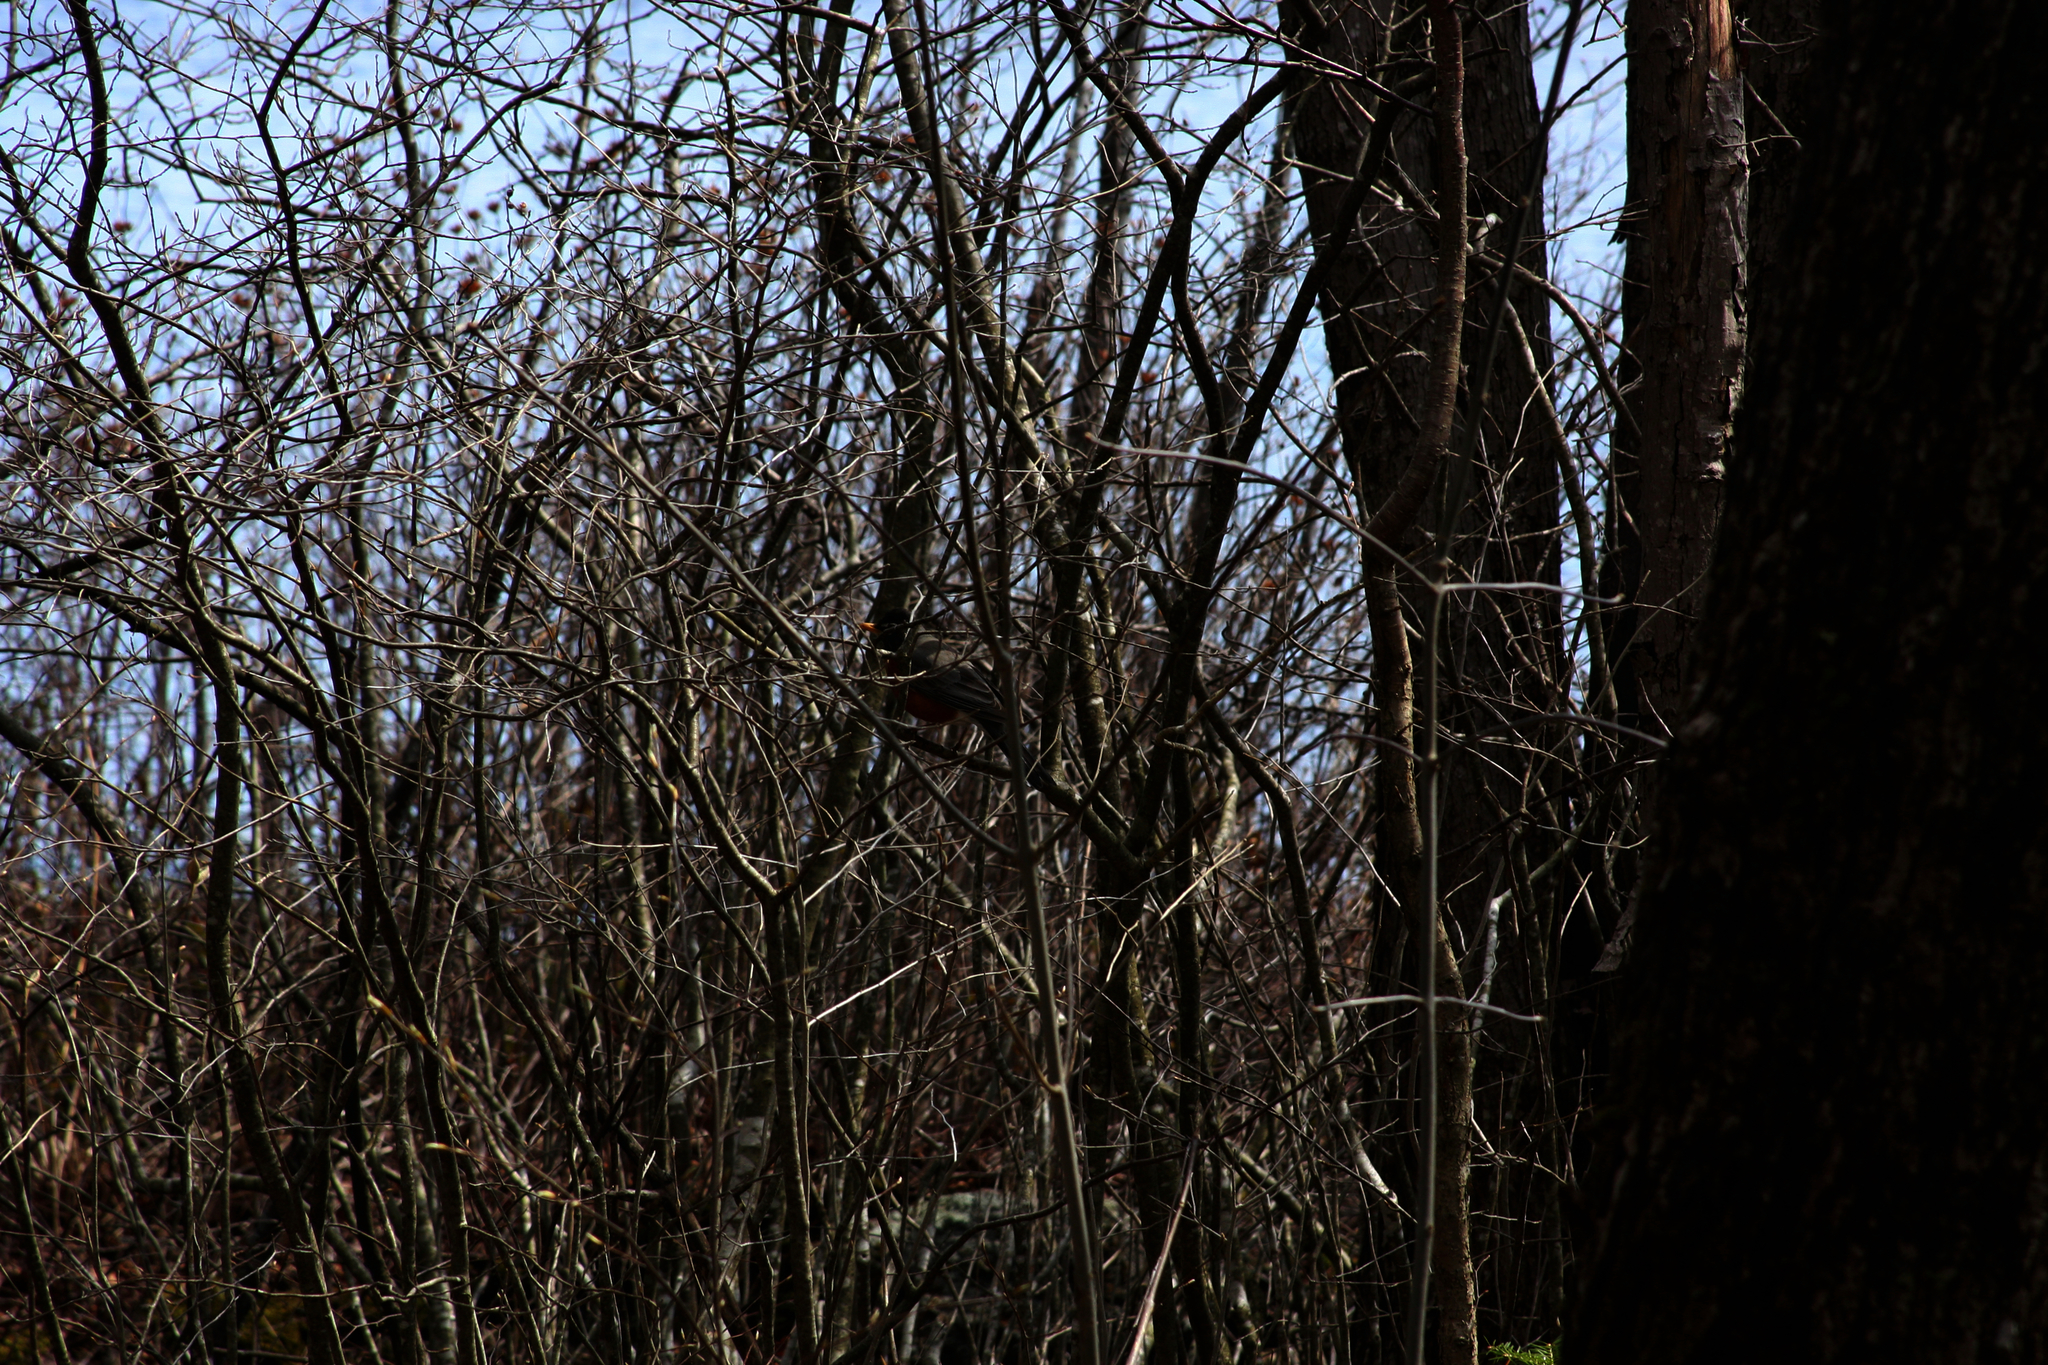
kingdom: Animalia
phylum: Chordata
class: Aves
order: Passeriformes
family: Turdidae
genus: Turdus
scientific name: Turdus migratorius
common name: American robin
